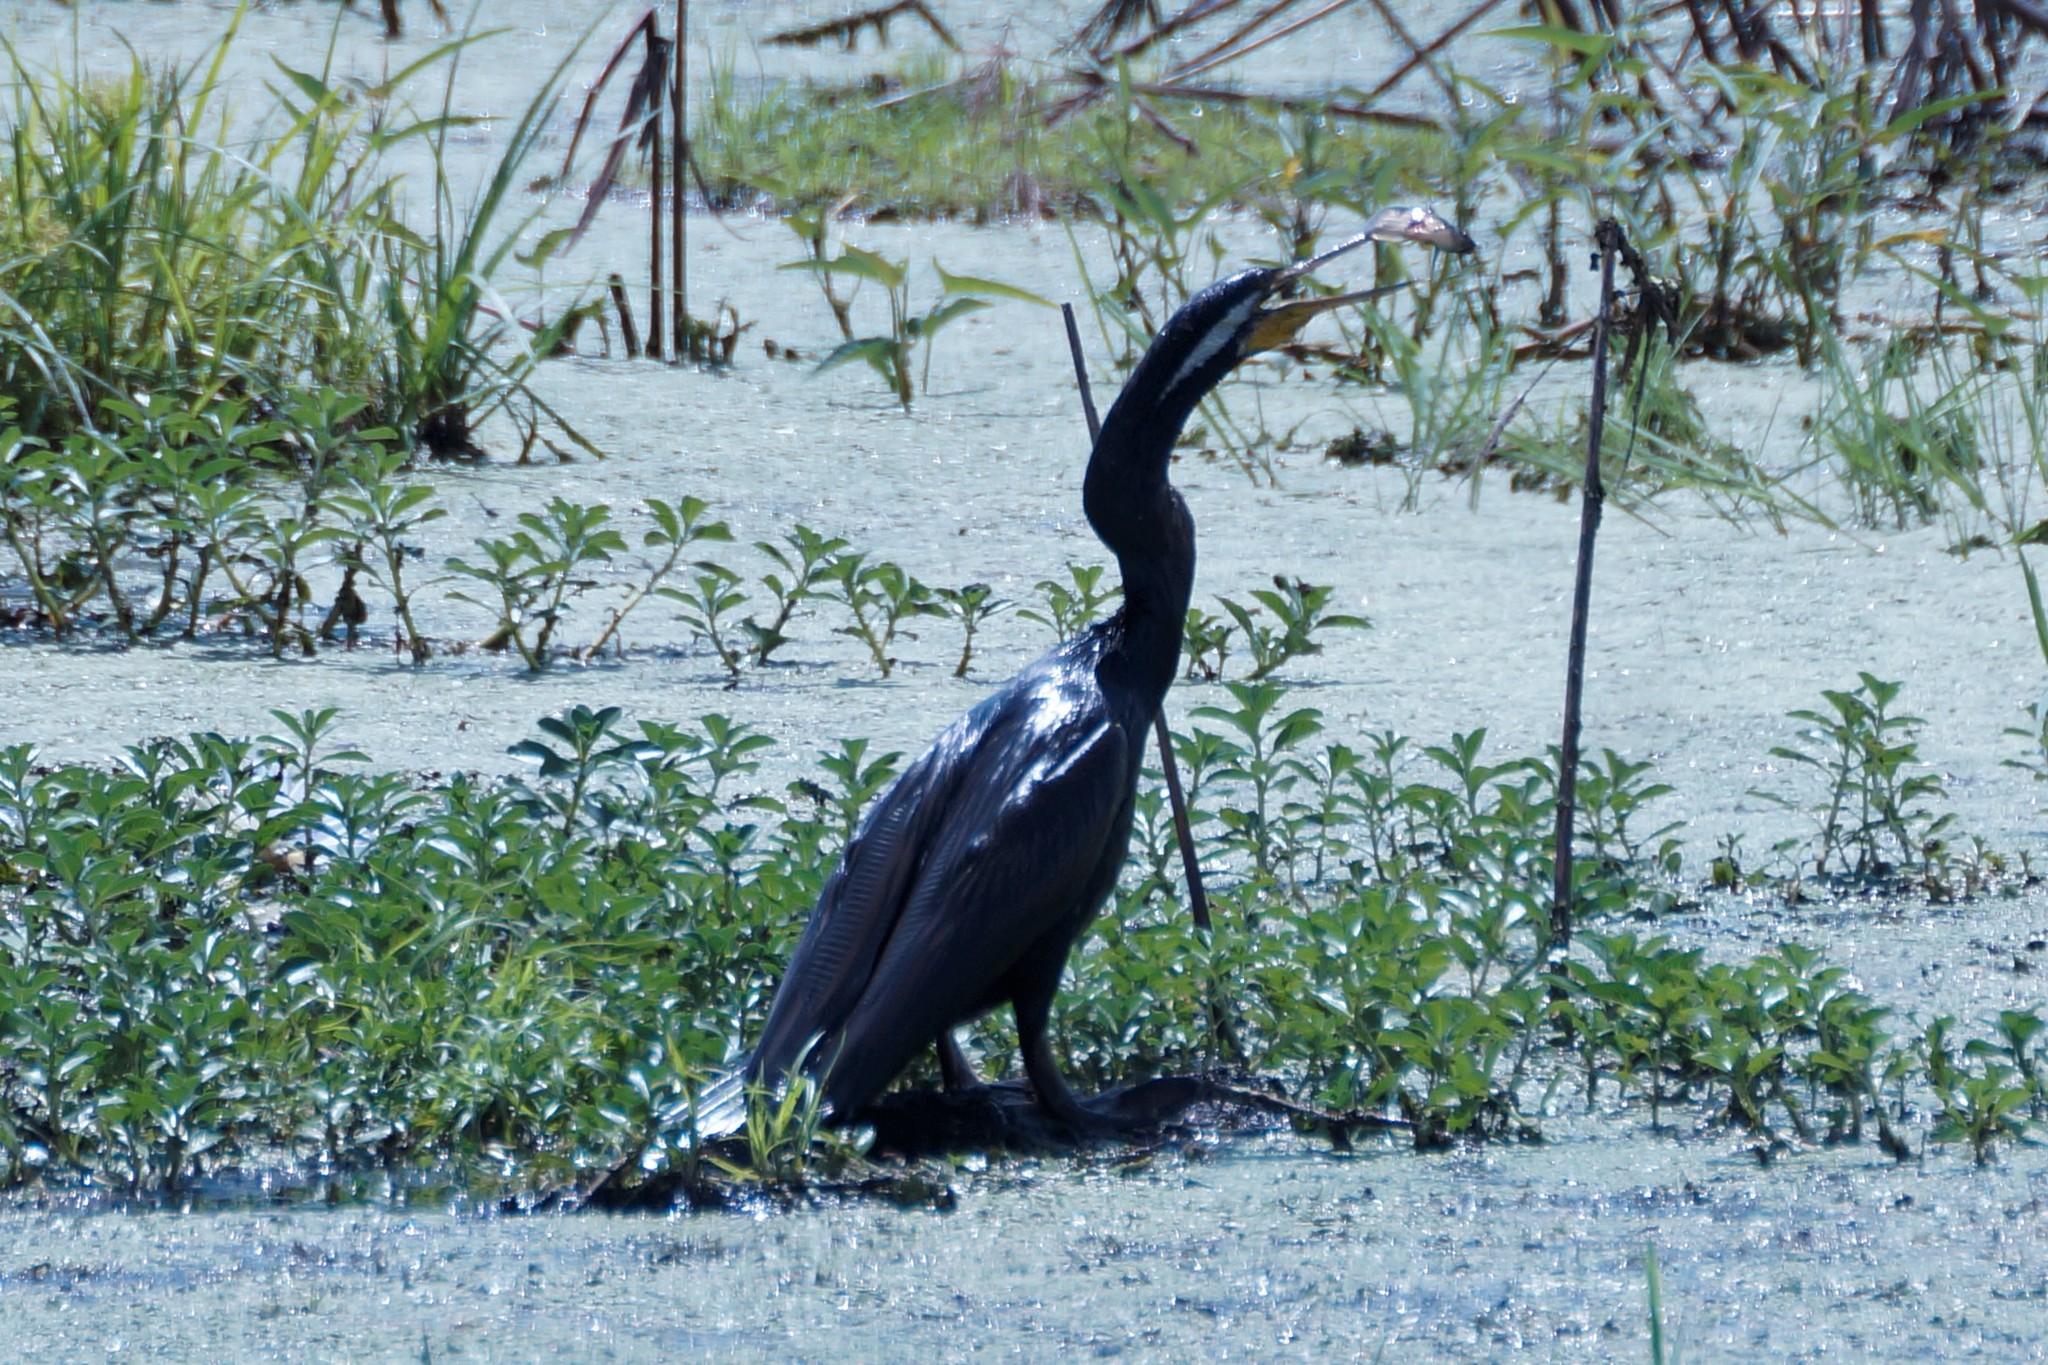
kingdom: Animalia
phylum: Chordata
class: Aves
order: Suliformes
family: Anhingidae
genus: Anhinga
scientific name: Anhinga novaehollandiae
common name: Australasian darter
